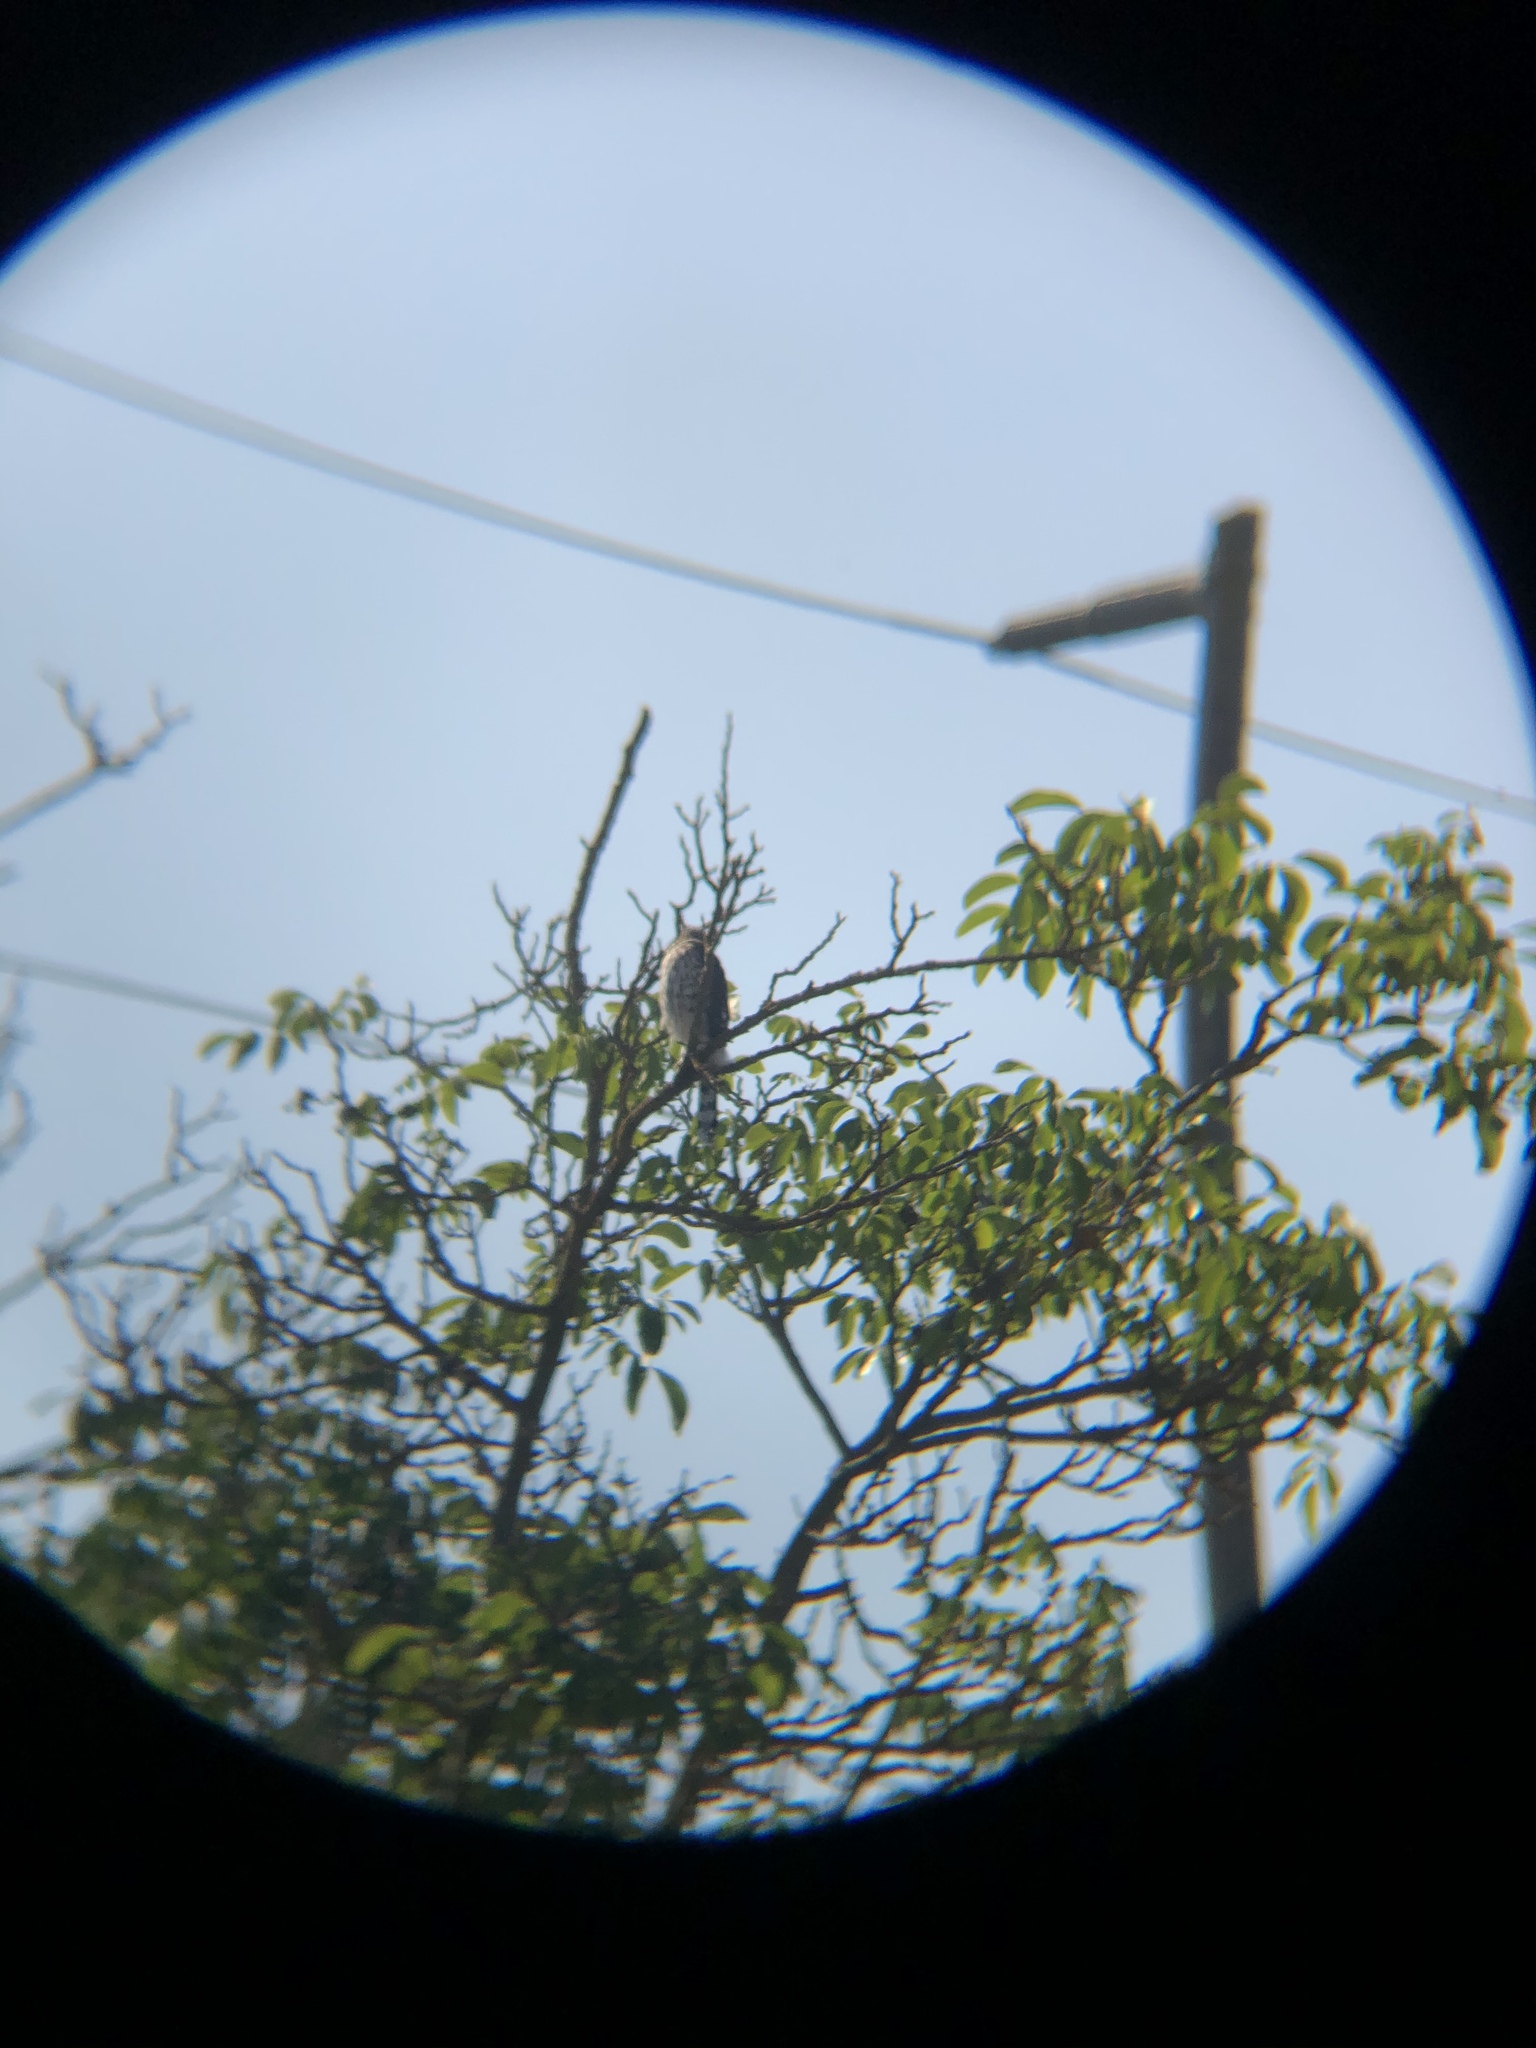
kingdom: Animalia
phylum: Chordata
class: Aves
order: Accipitriformes
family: Accipitridae
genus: Accipiter
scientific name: Accipiter cooperii
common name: Cooper's hawk
